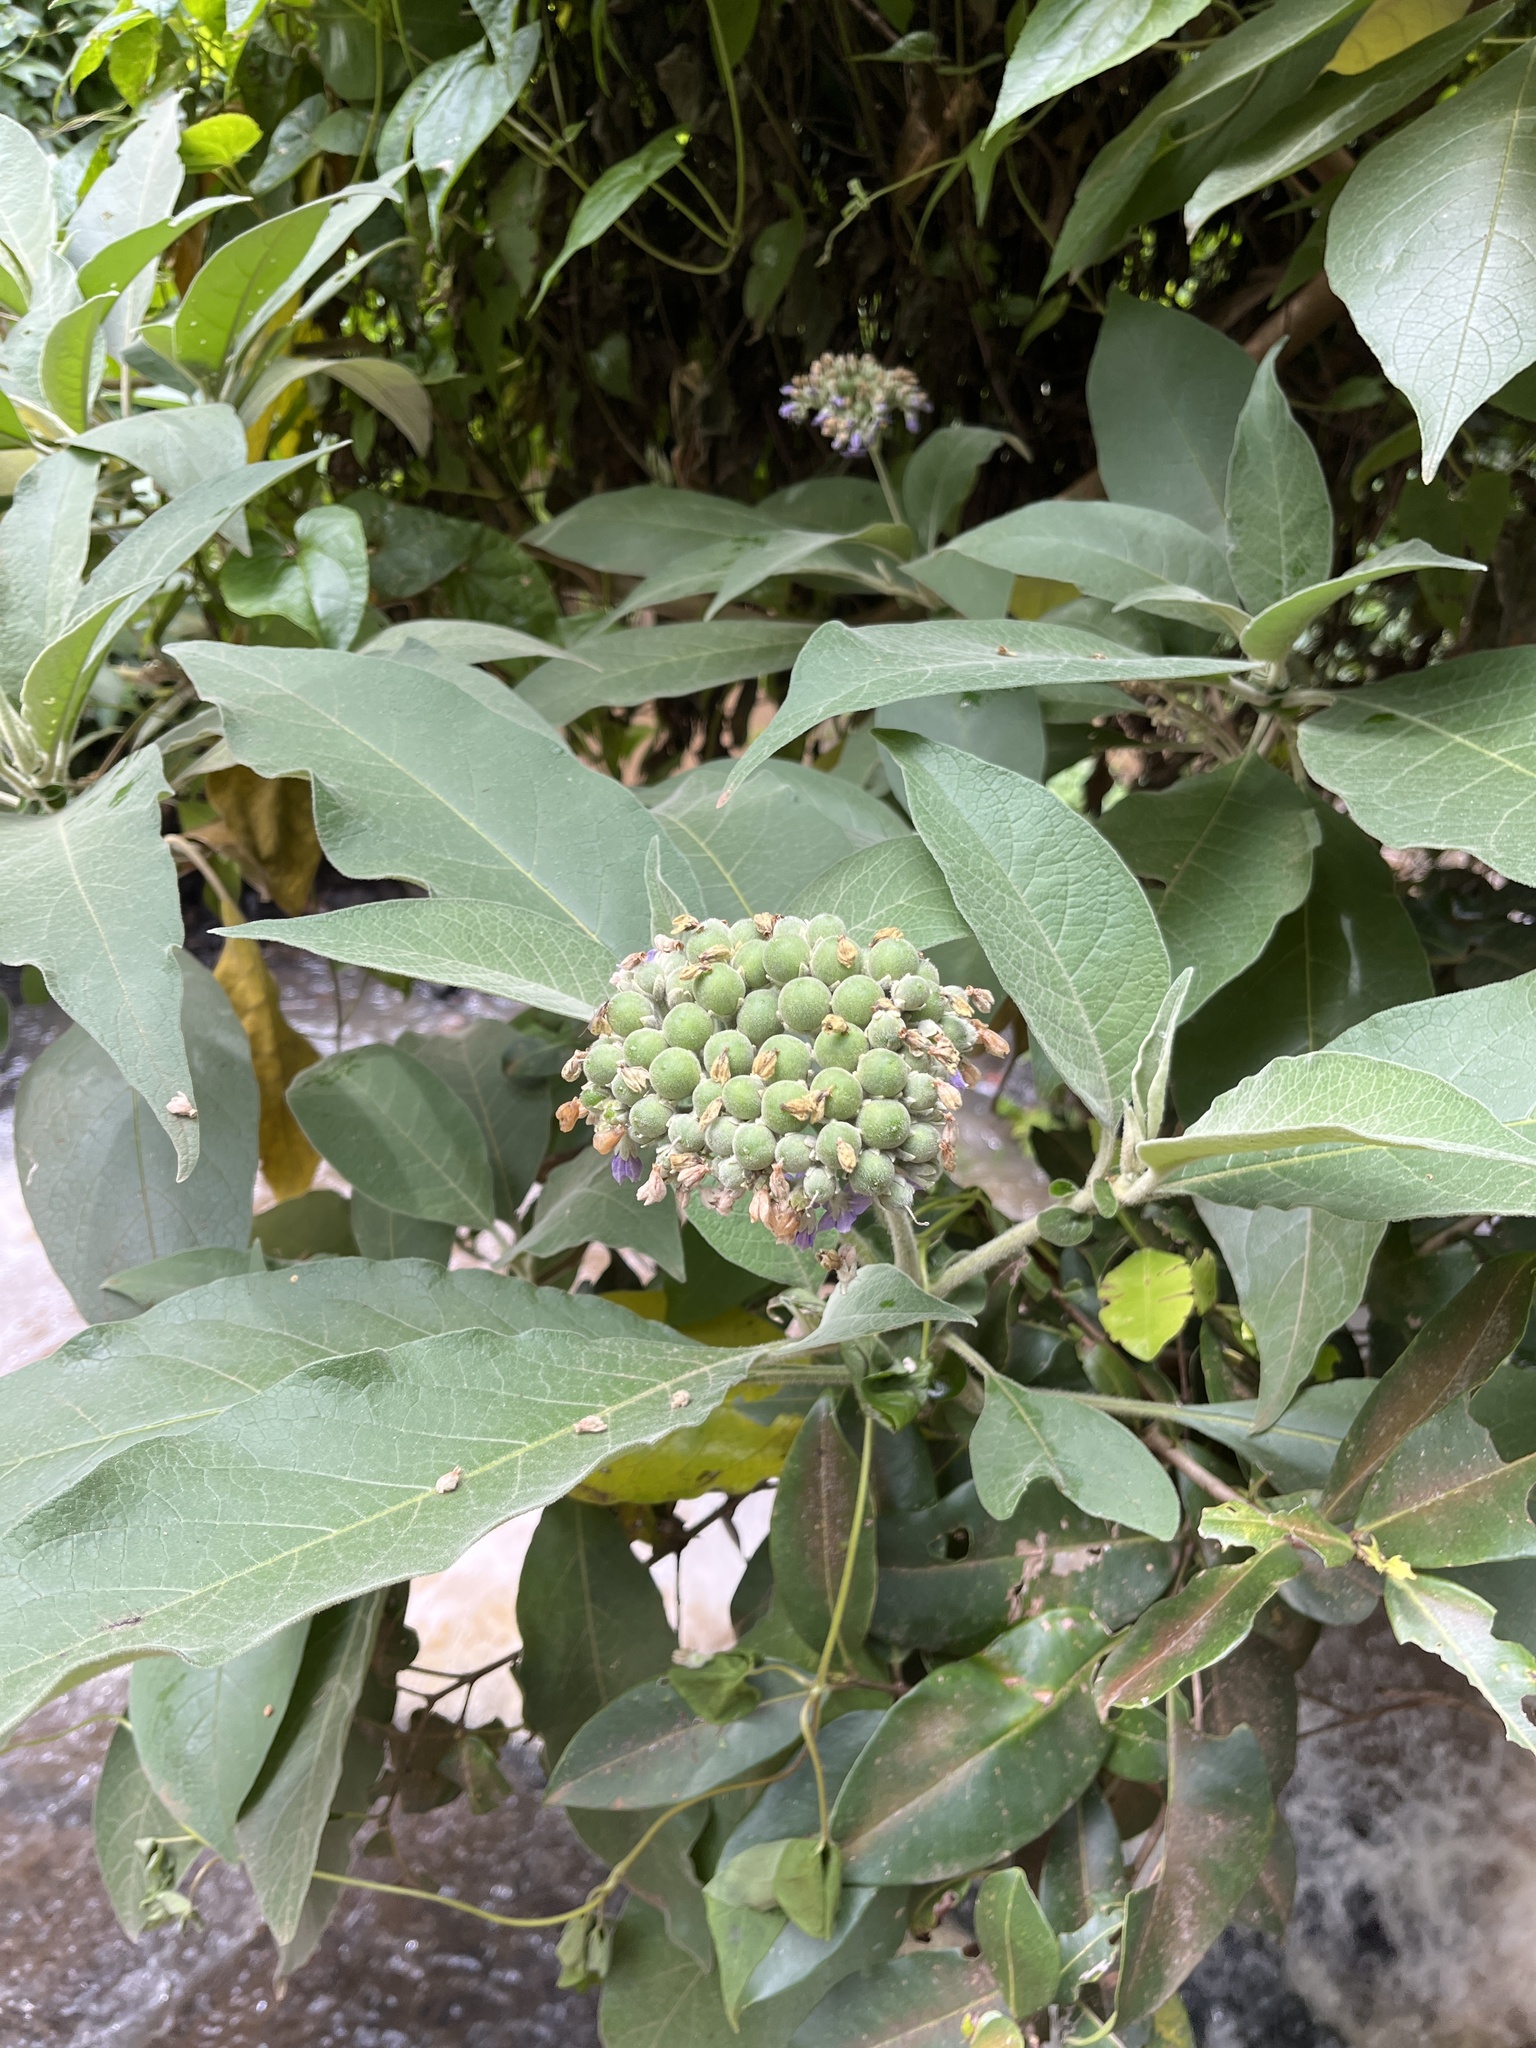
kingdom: Plantae
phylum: Tracheophyta
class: Magnoliopsida
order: Solanales
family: Solanaceae
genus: Solanum
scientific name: Solanum mauritianum
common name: Earleaf nightshade
